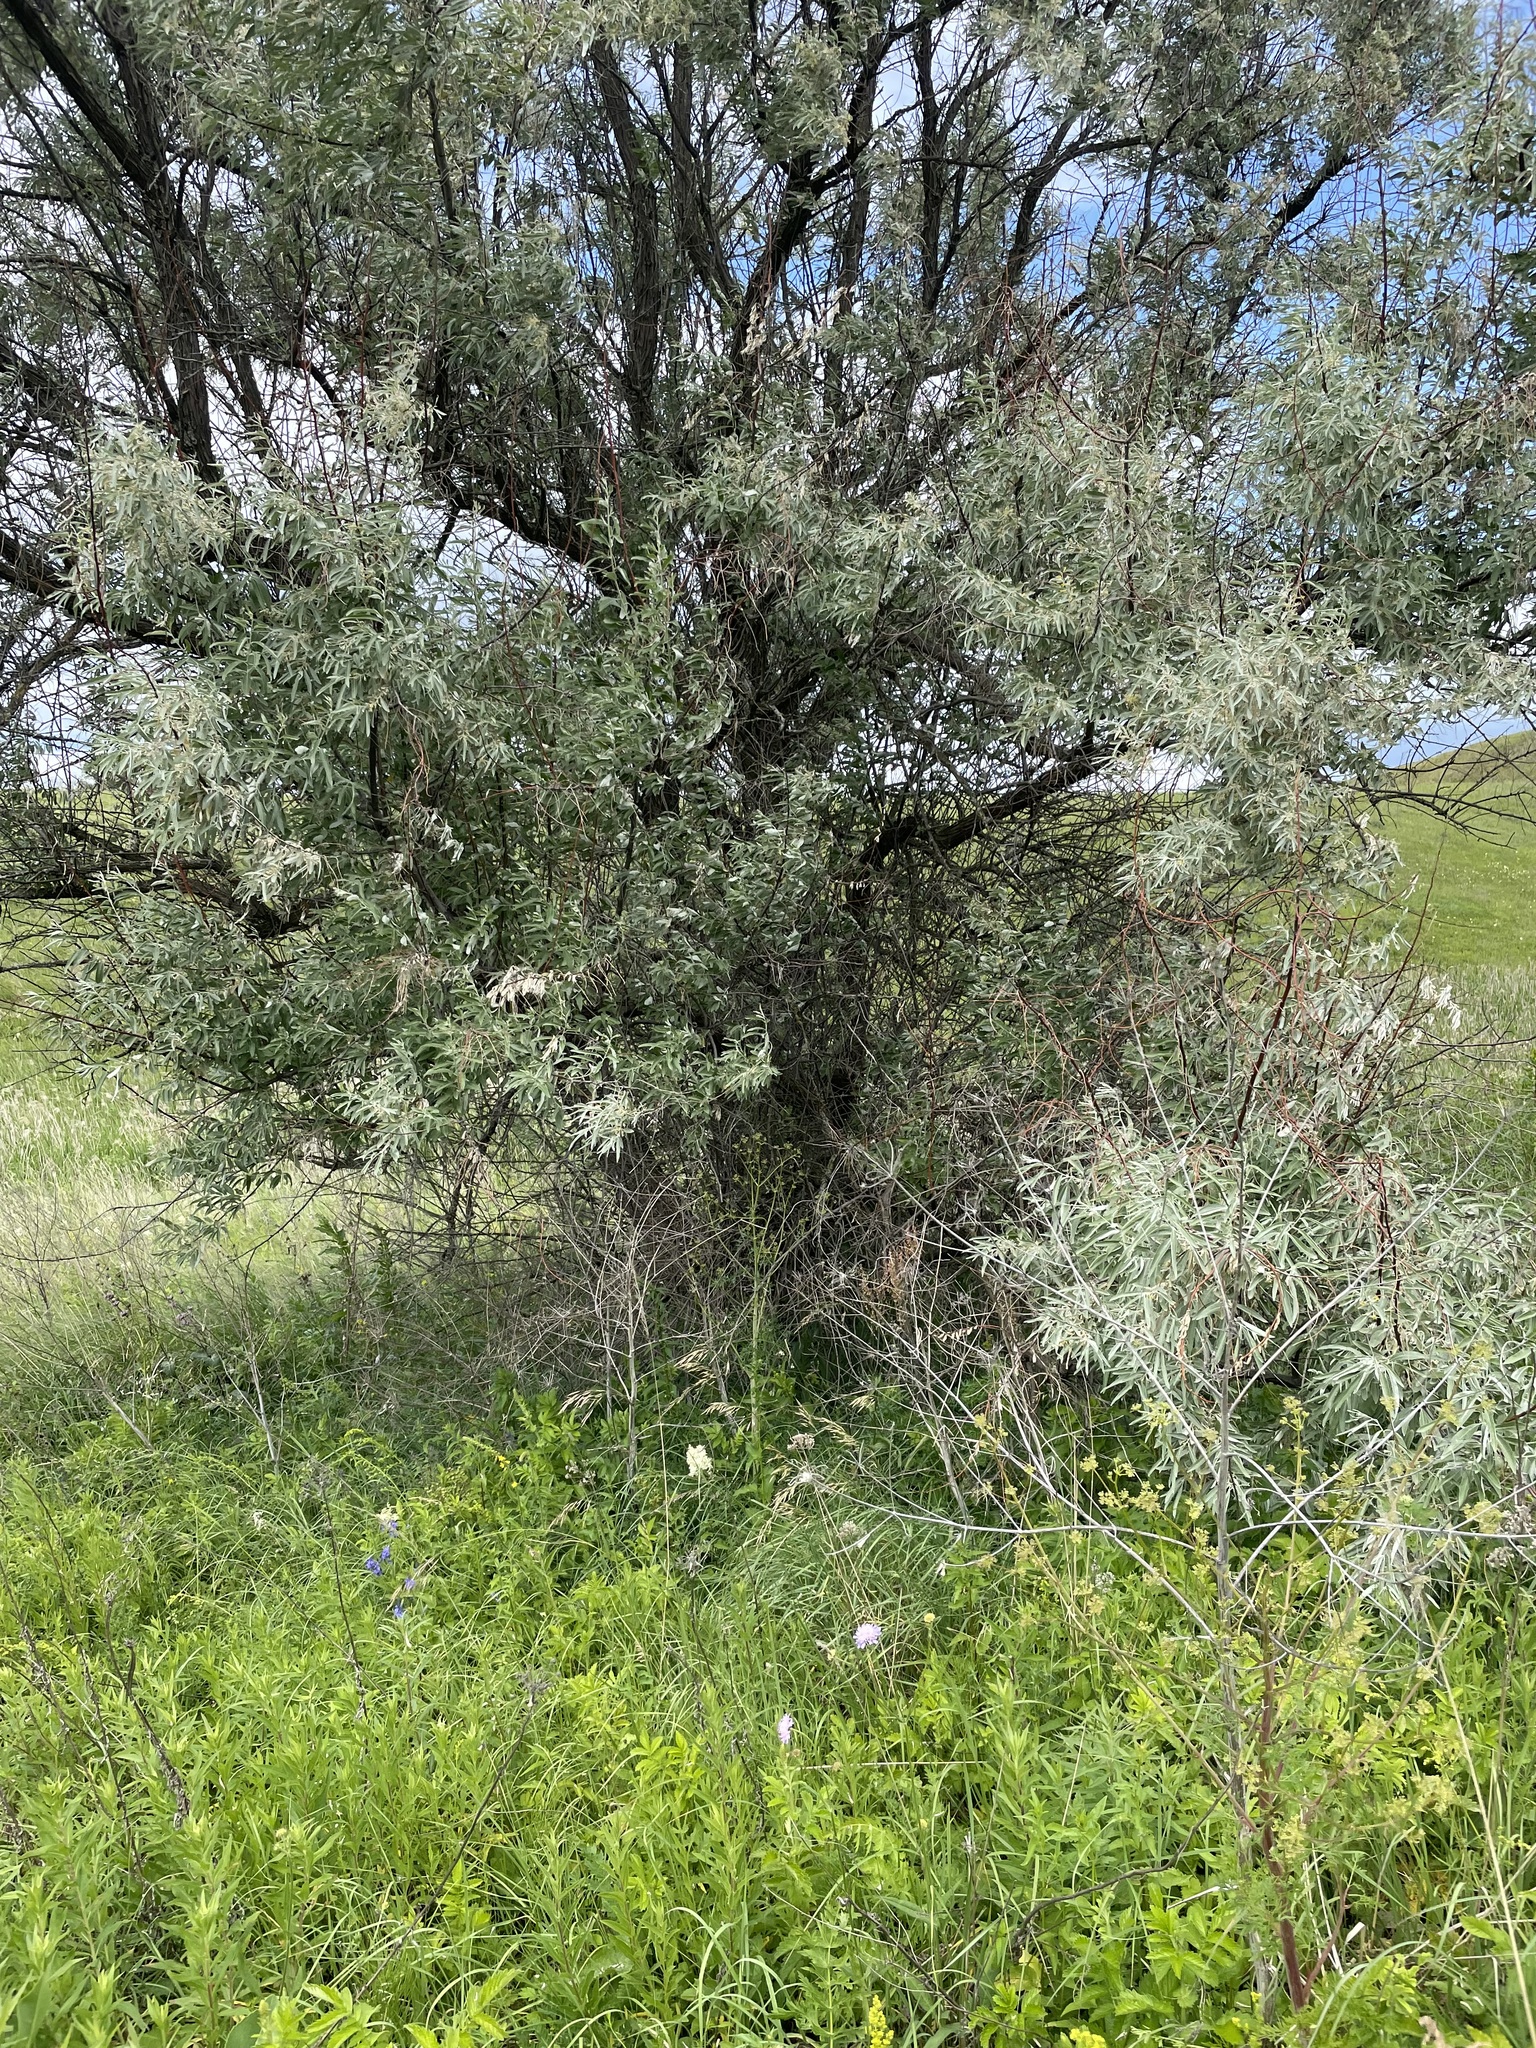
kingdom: Plantae
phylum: Tracheophyta
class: Magnoliopsida
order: Rosales
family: Elaeagnaceae
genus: Elaeagnus
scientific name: Elaeagnus angustifolia
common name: Russian olive
